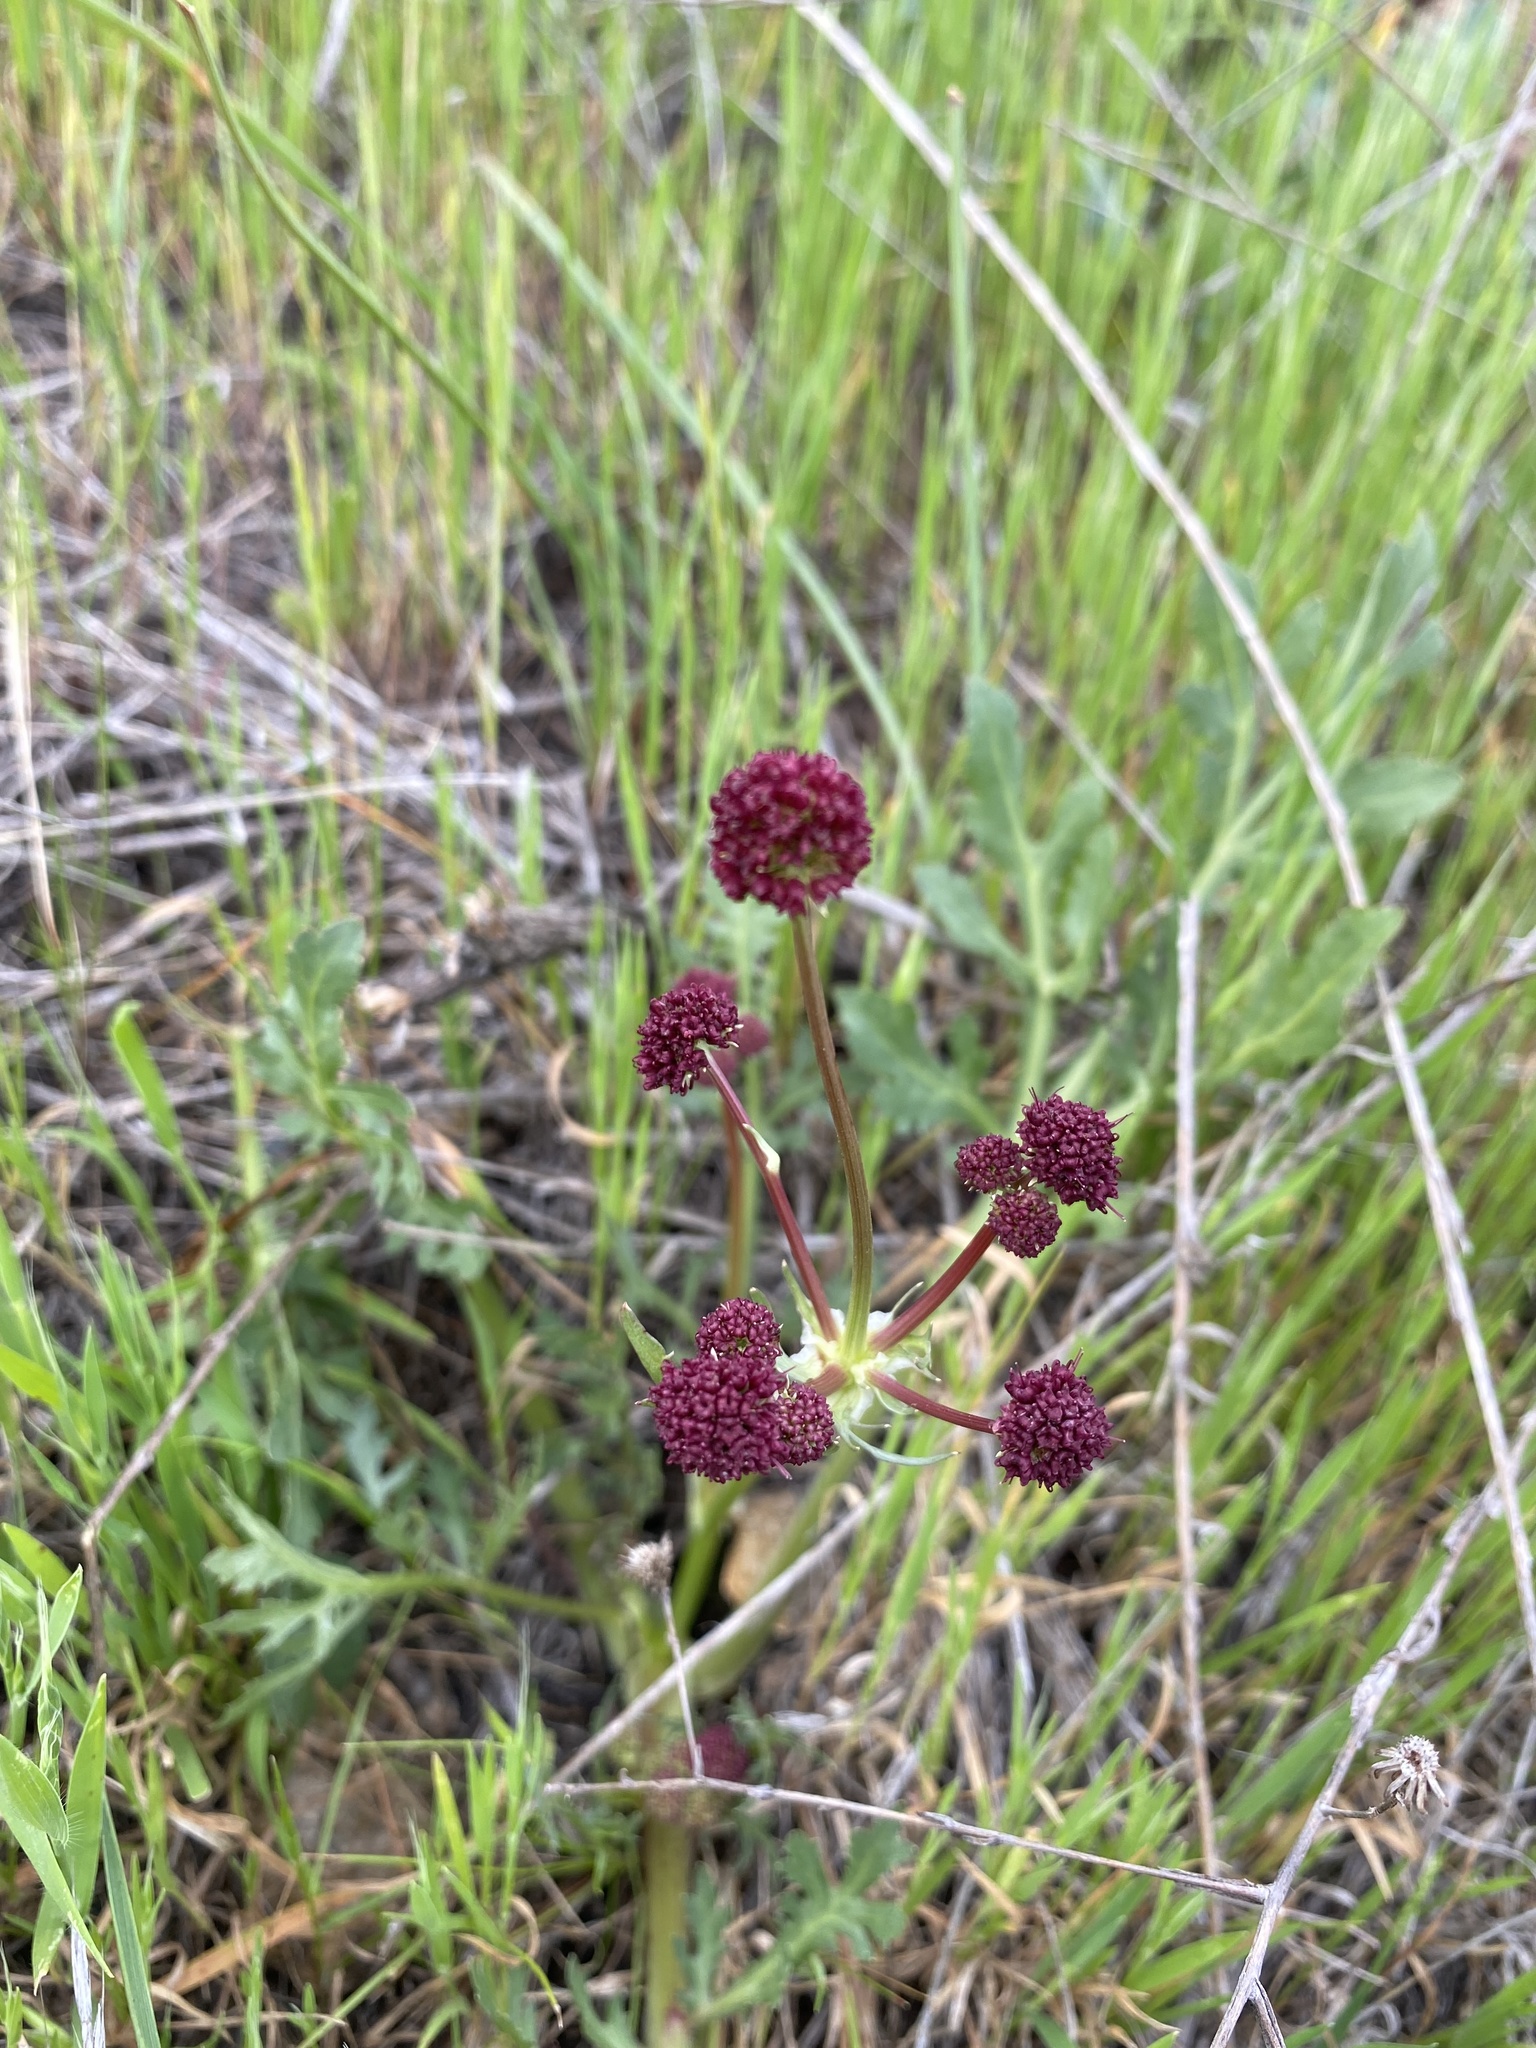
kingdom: Plantae
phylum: Tracheophyta
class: Magnoliopsida
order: Apiales
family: Apiaceae
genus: Sanicula
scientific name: Sanicula bipinnatifida
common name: Shoe-buttons
